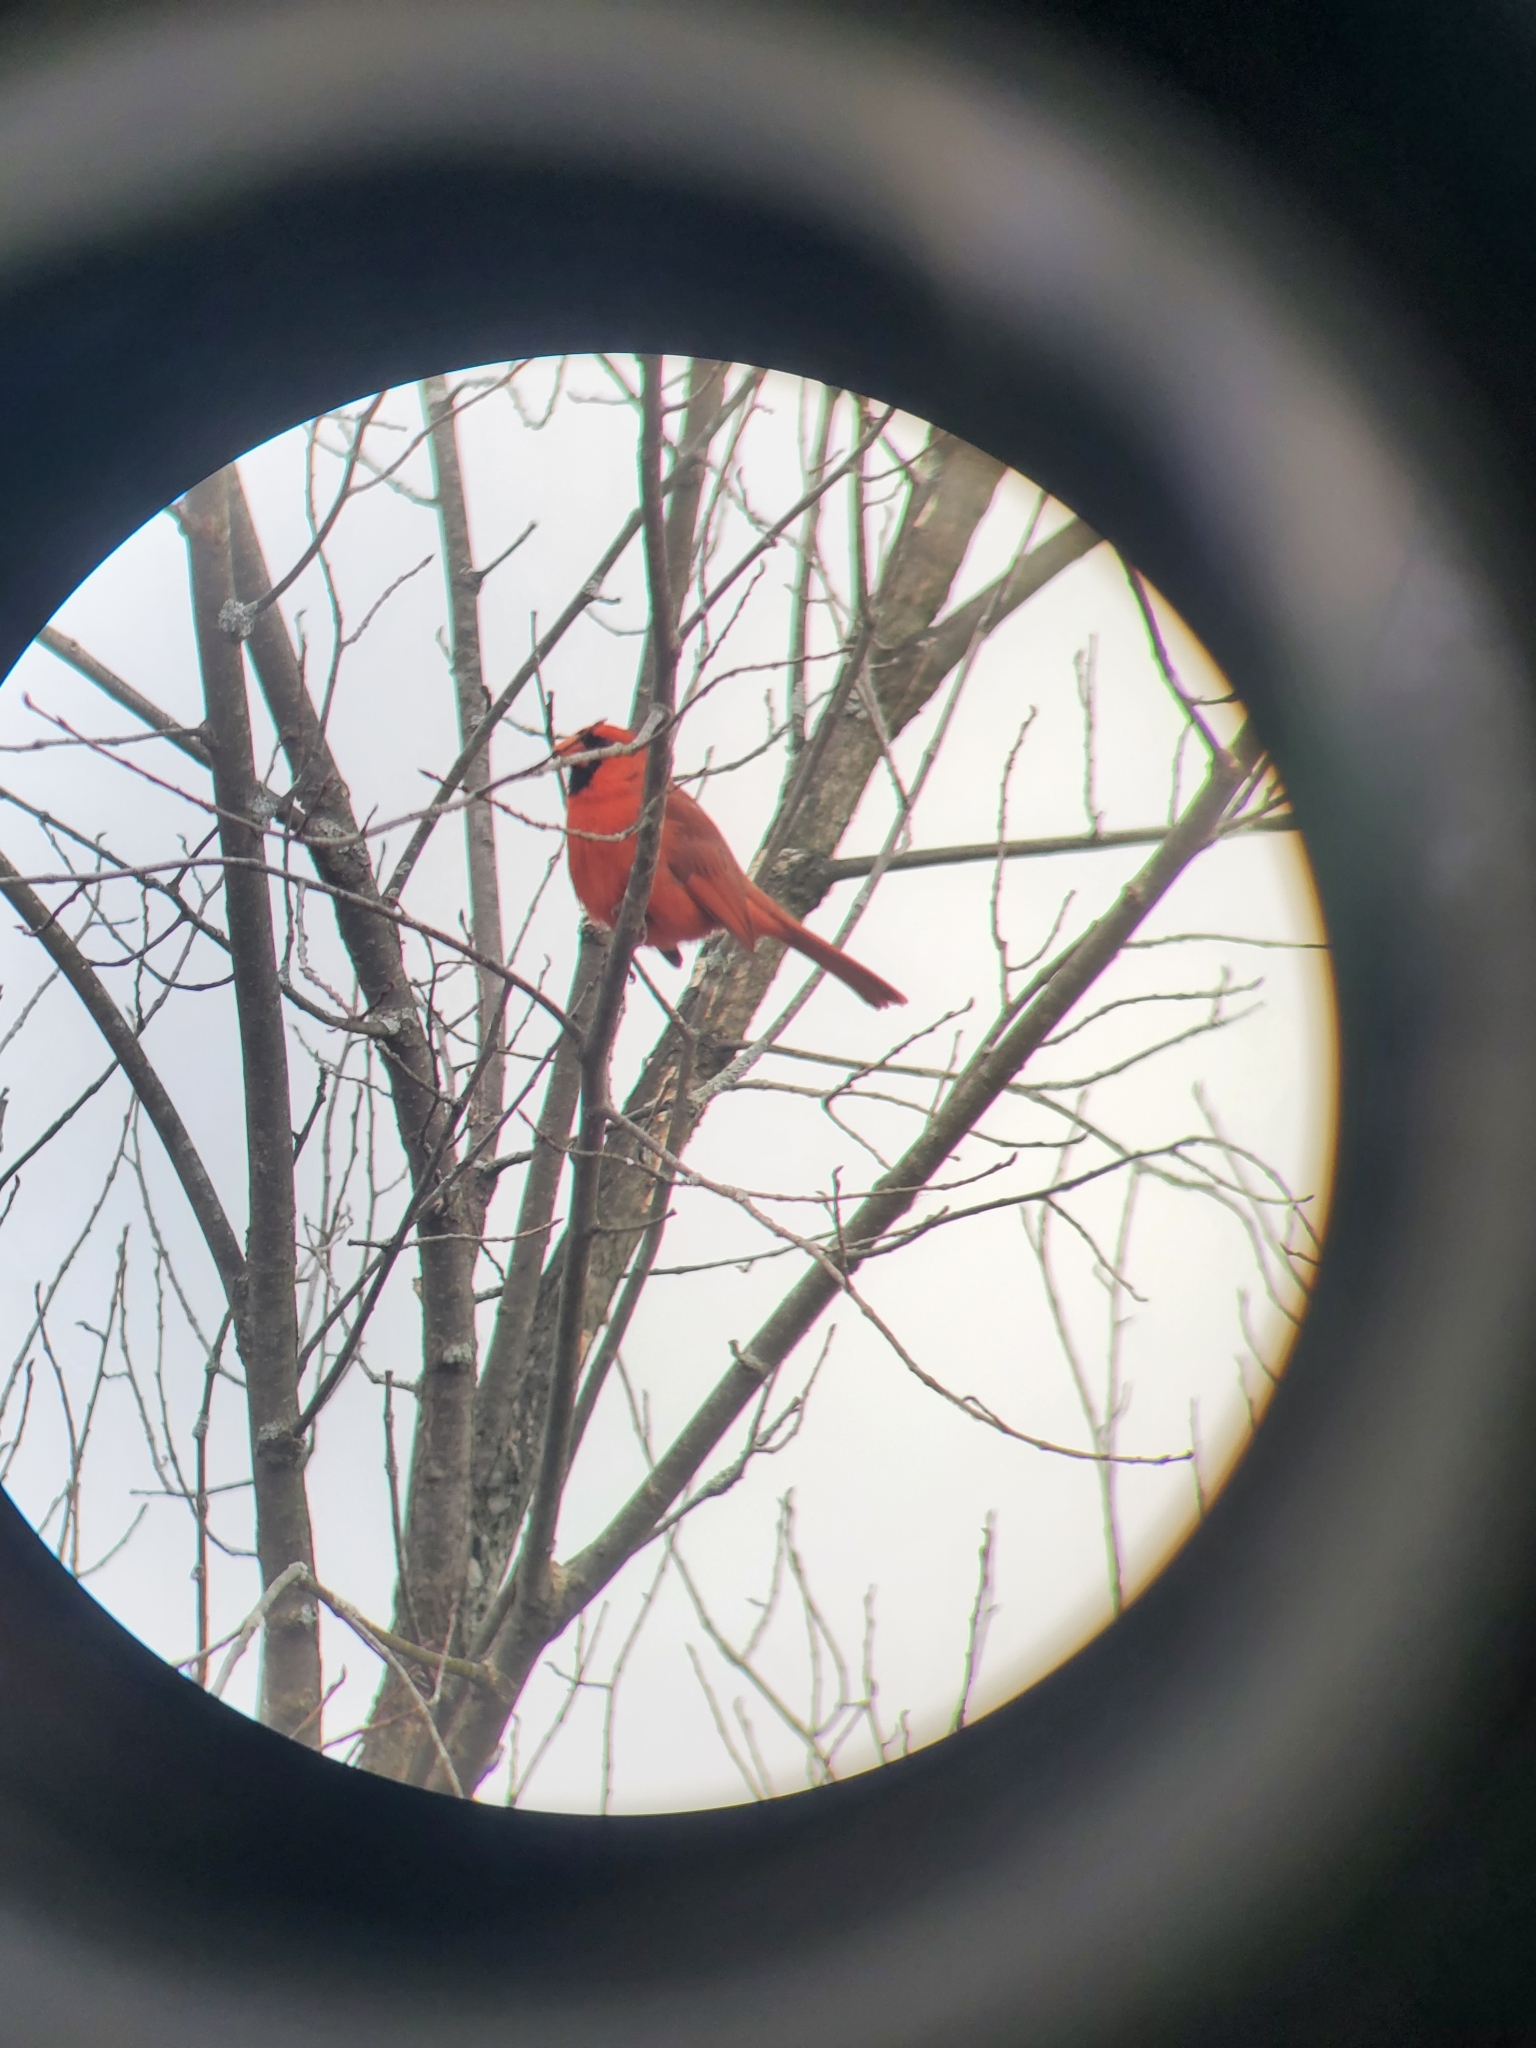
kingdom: Animalia
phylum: Chordata
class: Aves
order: Passeriformes
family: Cardinalidae
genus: Cardinalis
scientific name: Cardinalis cardinalis
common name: Northern cardinal
